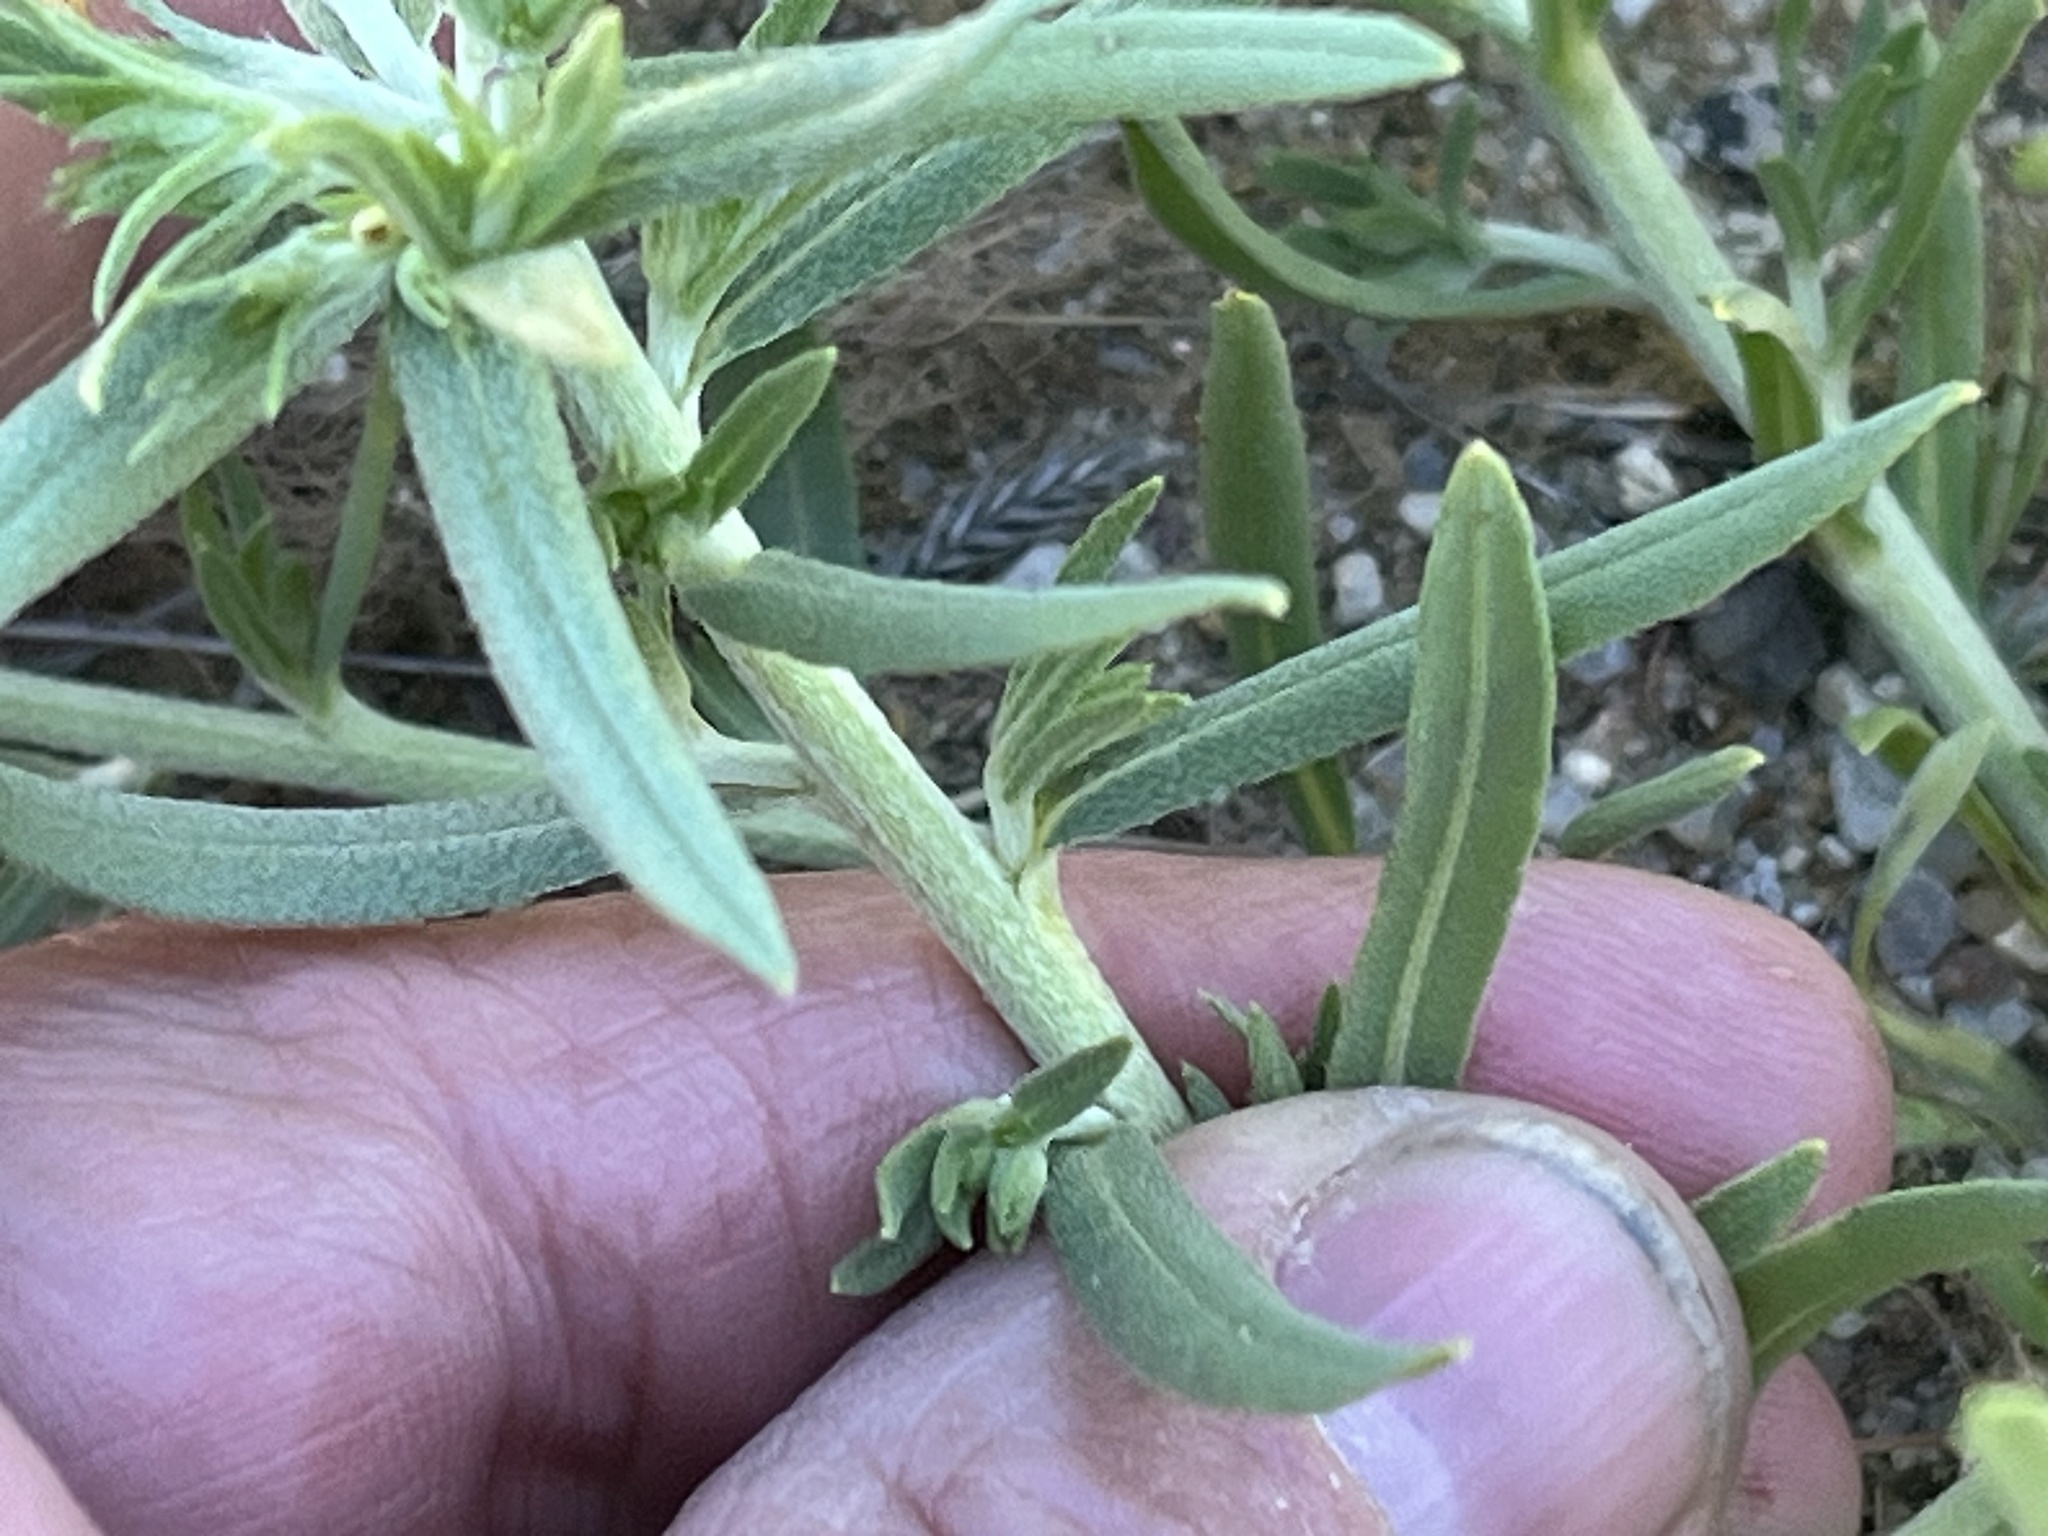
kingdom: Plantae
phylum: Tracheophyta
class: Magnoliopsida
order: Boraginales
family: Boraginaceae
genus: Lithospermum
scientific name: Lithospermum incisum
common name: Fringed gromwell
